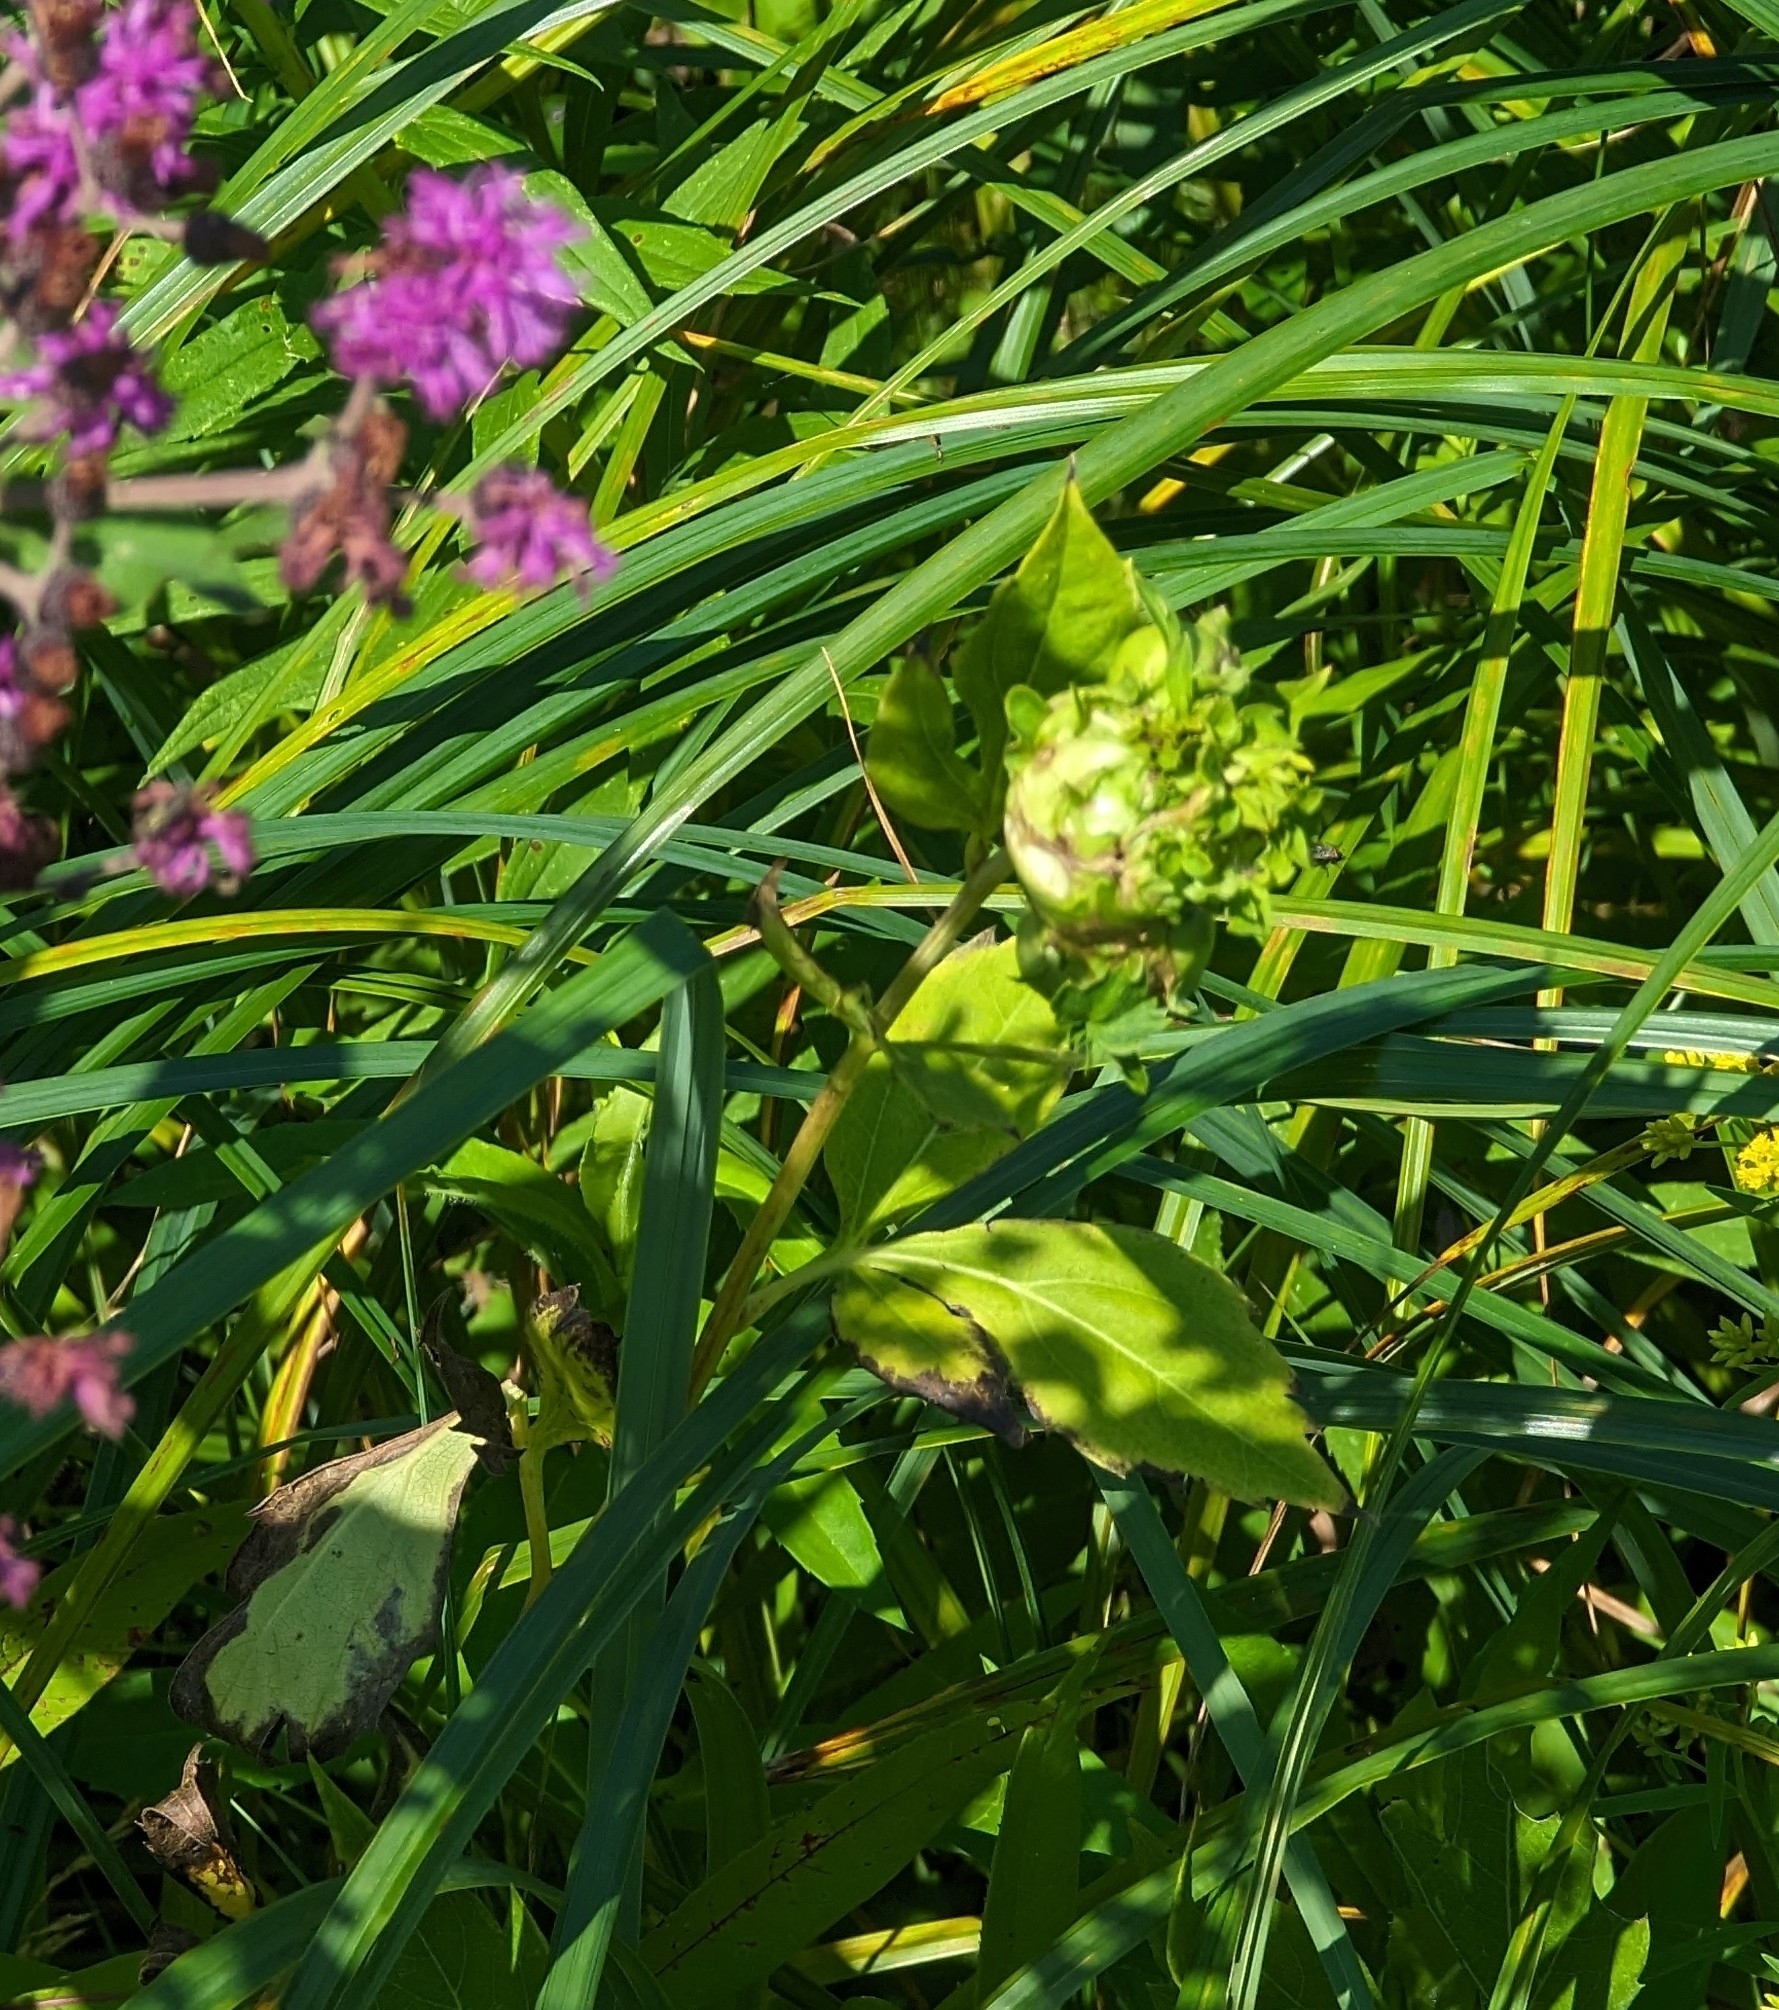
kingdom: Animalia
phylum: Arthropoda
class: Insecta
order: Diptera
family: Cecidomyiidae
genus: Asphondylia
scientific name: Asphondylia rudbeckiaeconspicua
